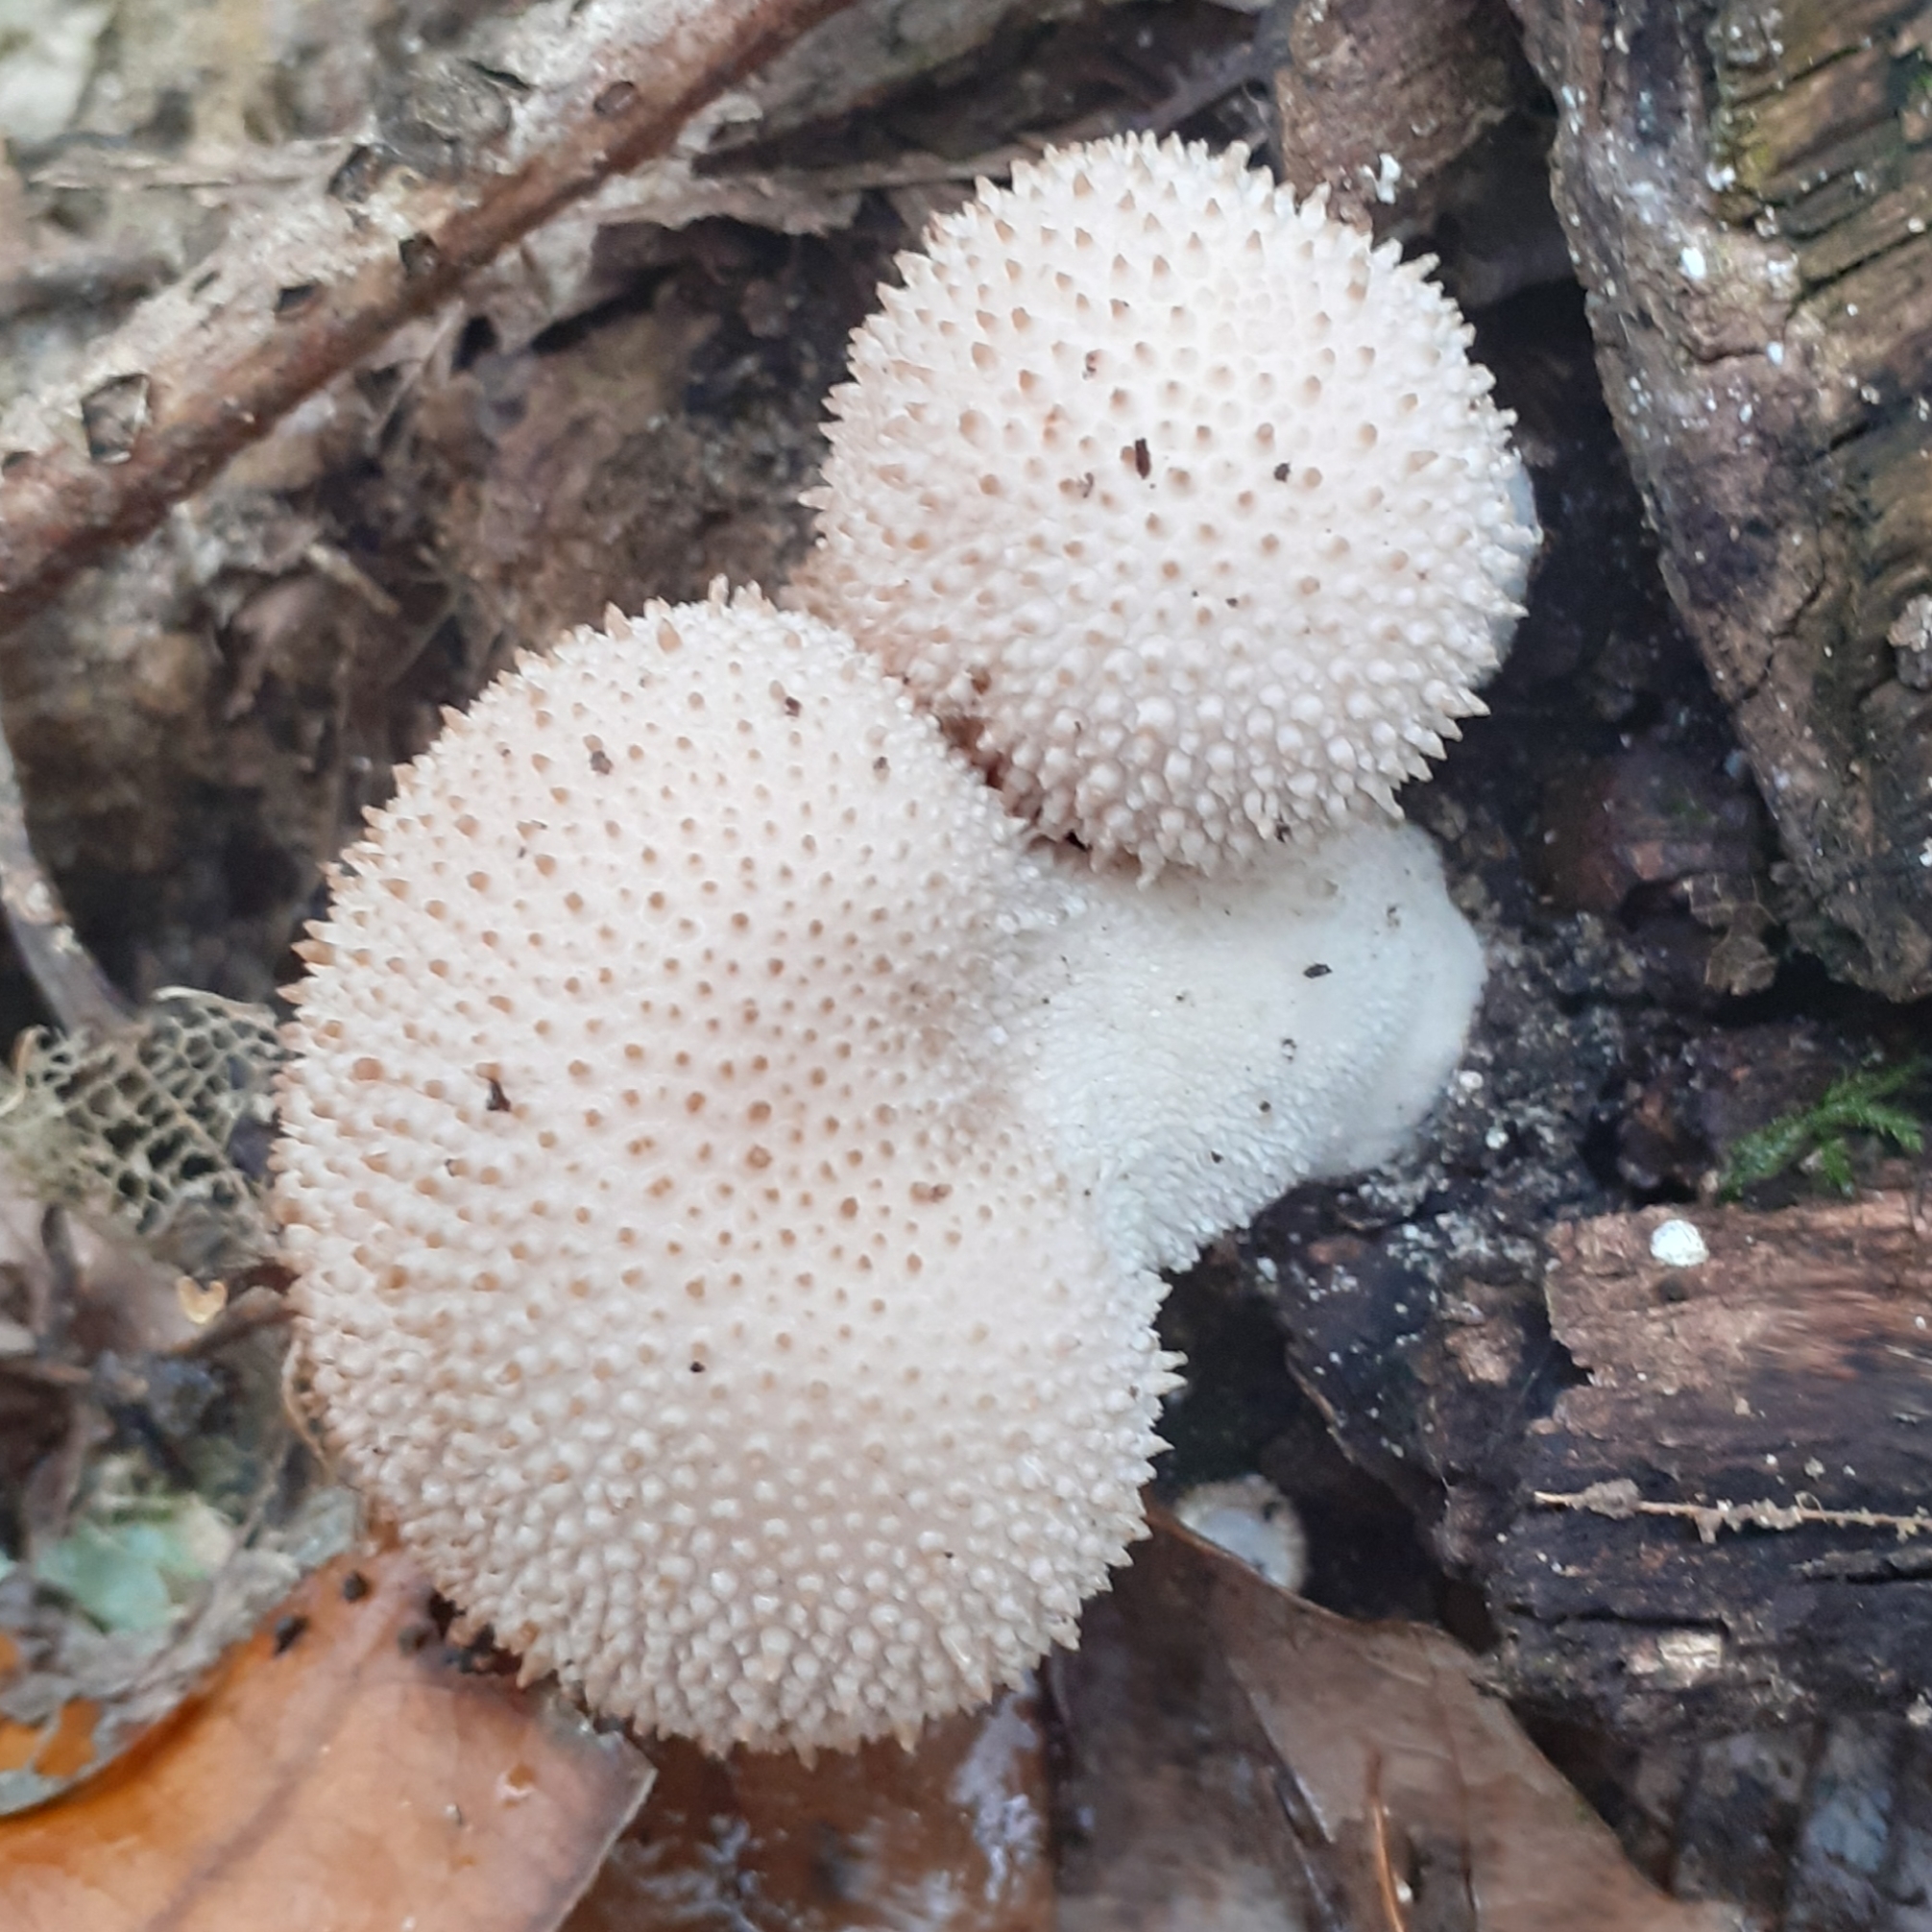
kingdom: Fungi
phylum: Basidiomycota
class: Agaricomycetes
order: Agaricales
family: Lycoperdaceae
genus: Lycoperdon
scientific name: Lycoperdon perlatum
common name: Common puffball
